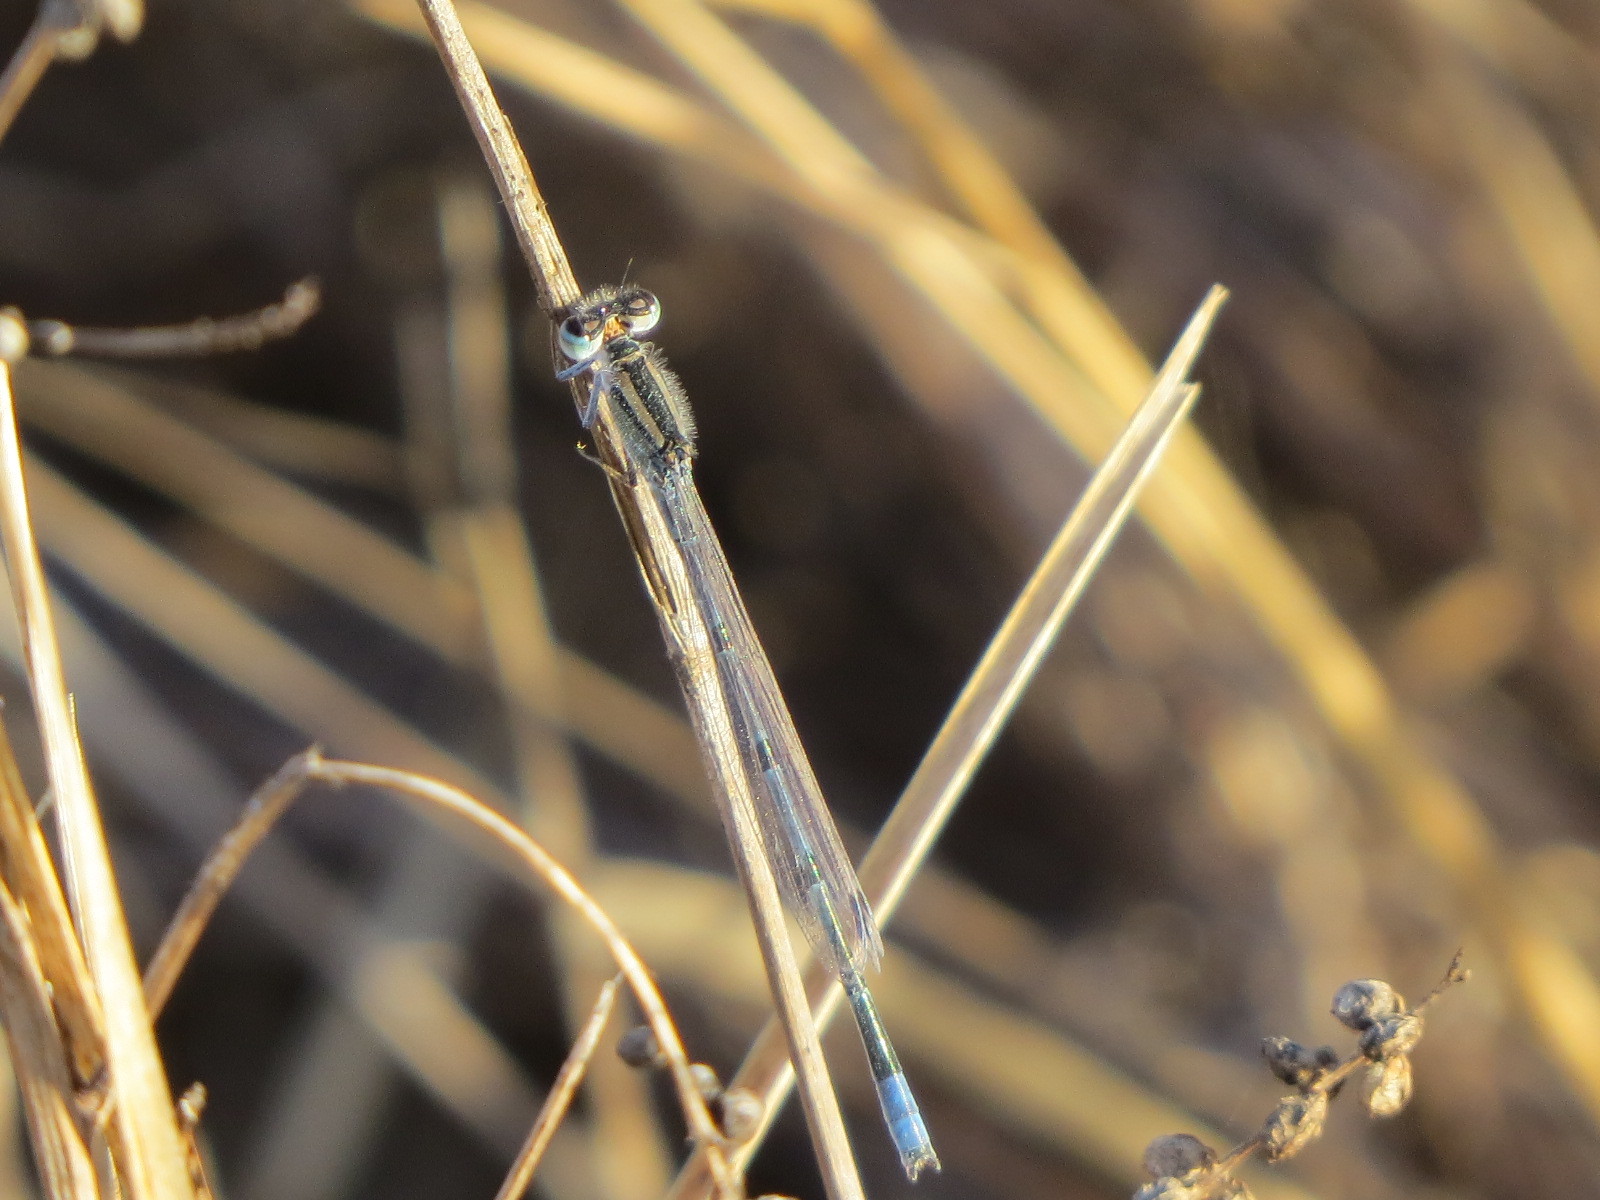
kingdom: Animalia
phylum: Arthropoda
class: Insecta
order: Odonata
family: Coenagrionidae
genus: Enallagma
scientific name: Enallagma civile
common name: Damselfly
